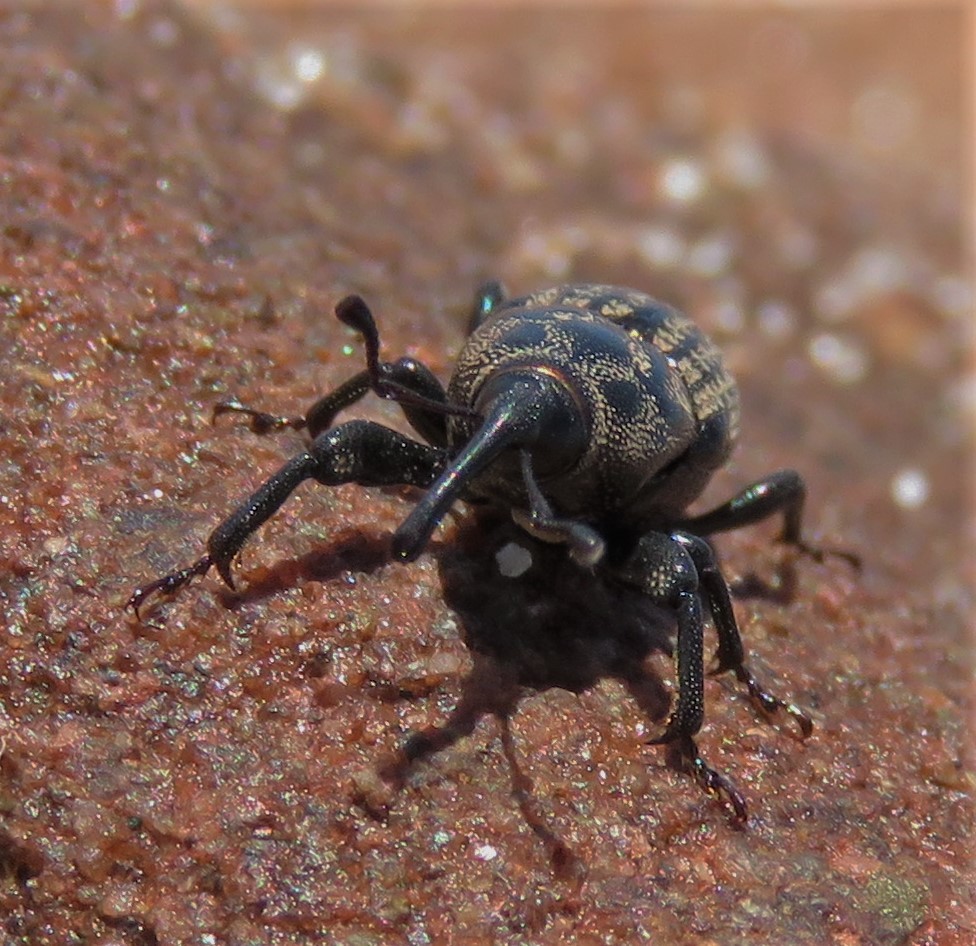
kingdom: Animalia
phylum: Arthropoda
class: Insecta
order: Coleoptera
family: Dryophthoridae
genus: Sphenophorus
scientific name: Sphenophorus zeae
